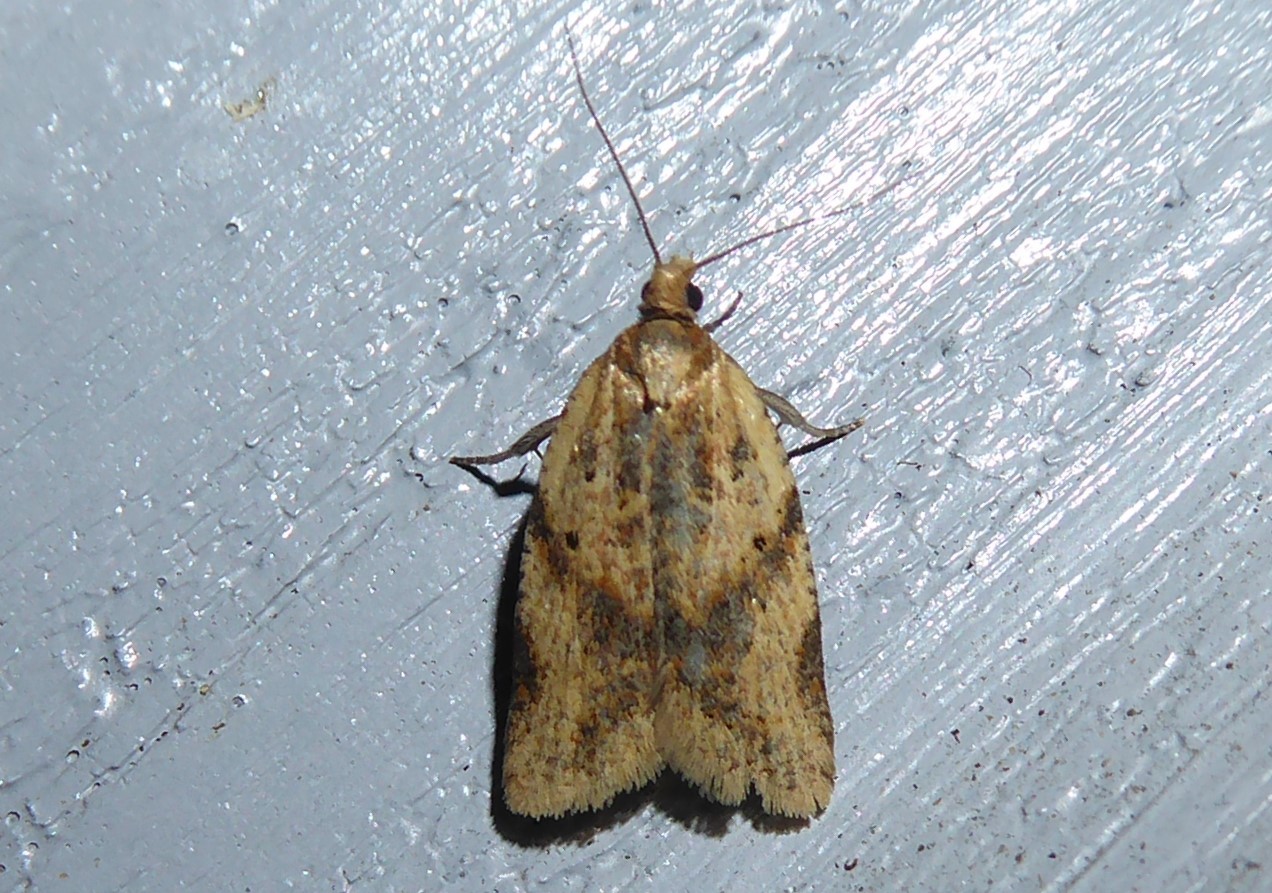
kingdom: Animalia
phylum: Arthropoda
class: Insecta
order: Lepidoptera
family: Tortricidae
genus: Clepsis
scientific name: Clepsis
